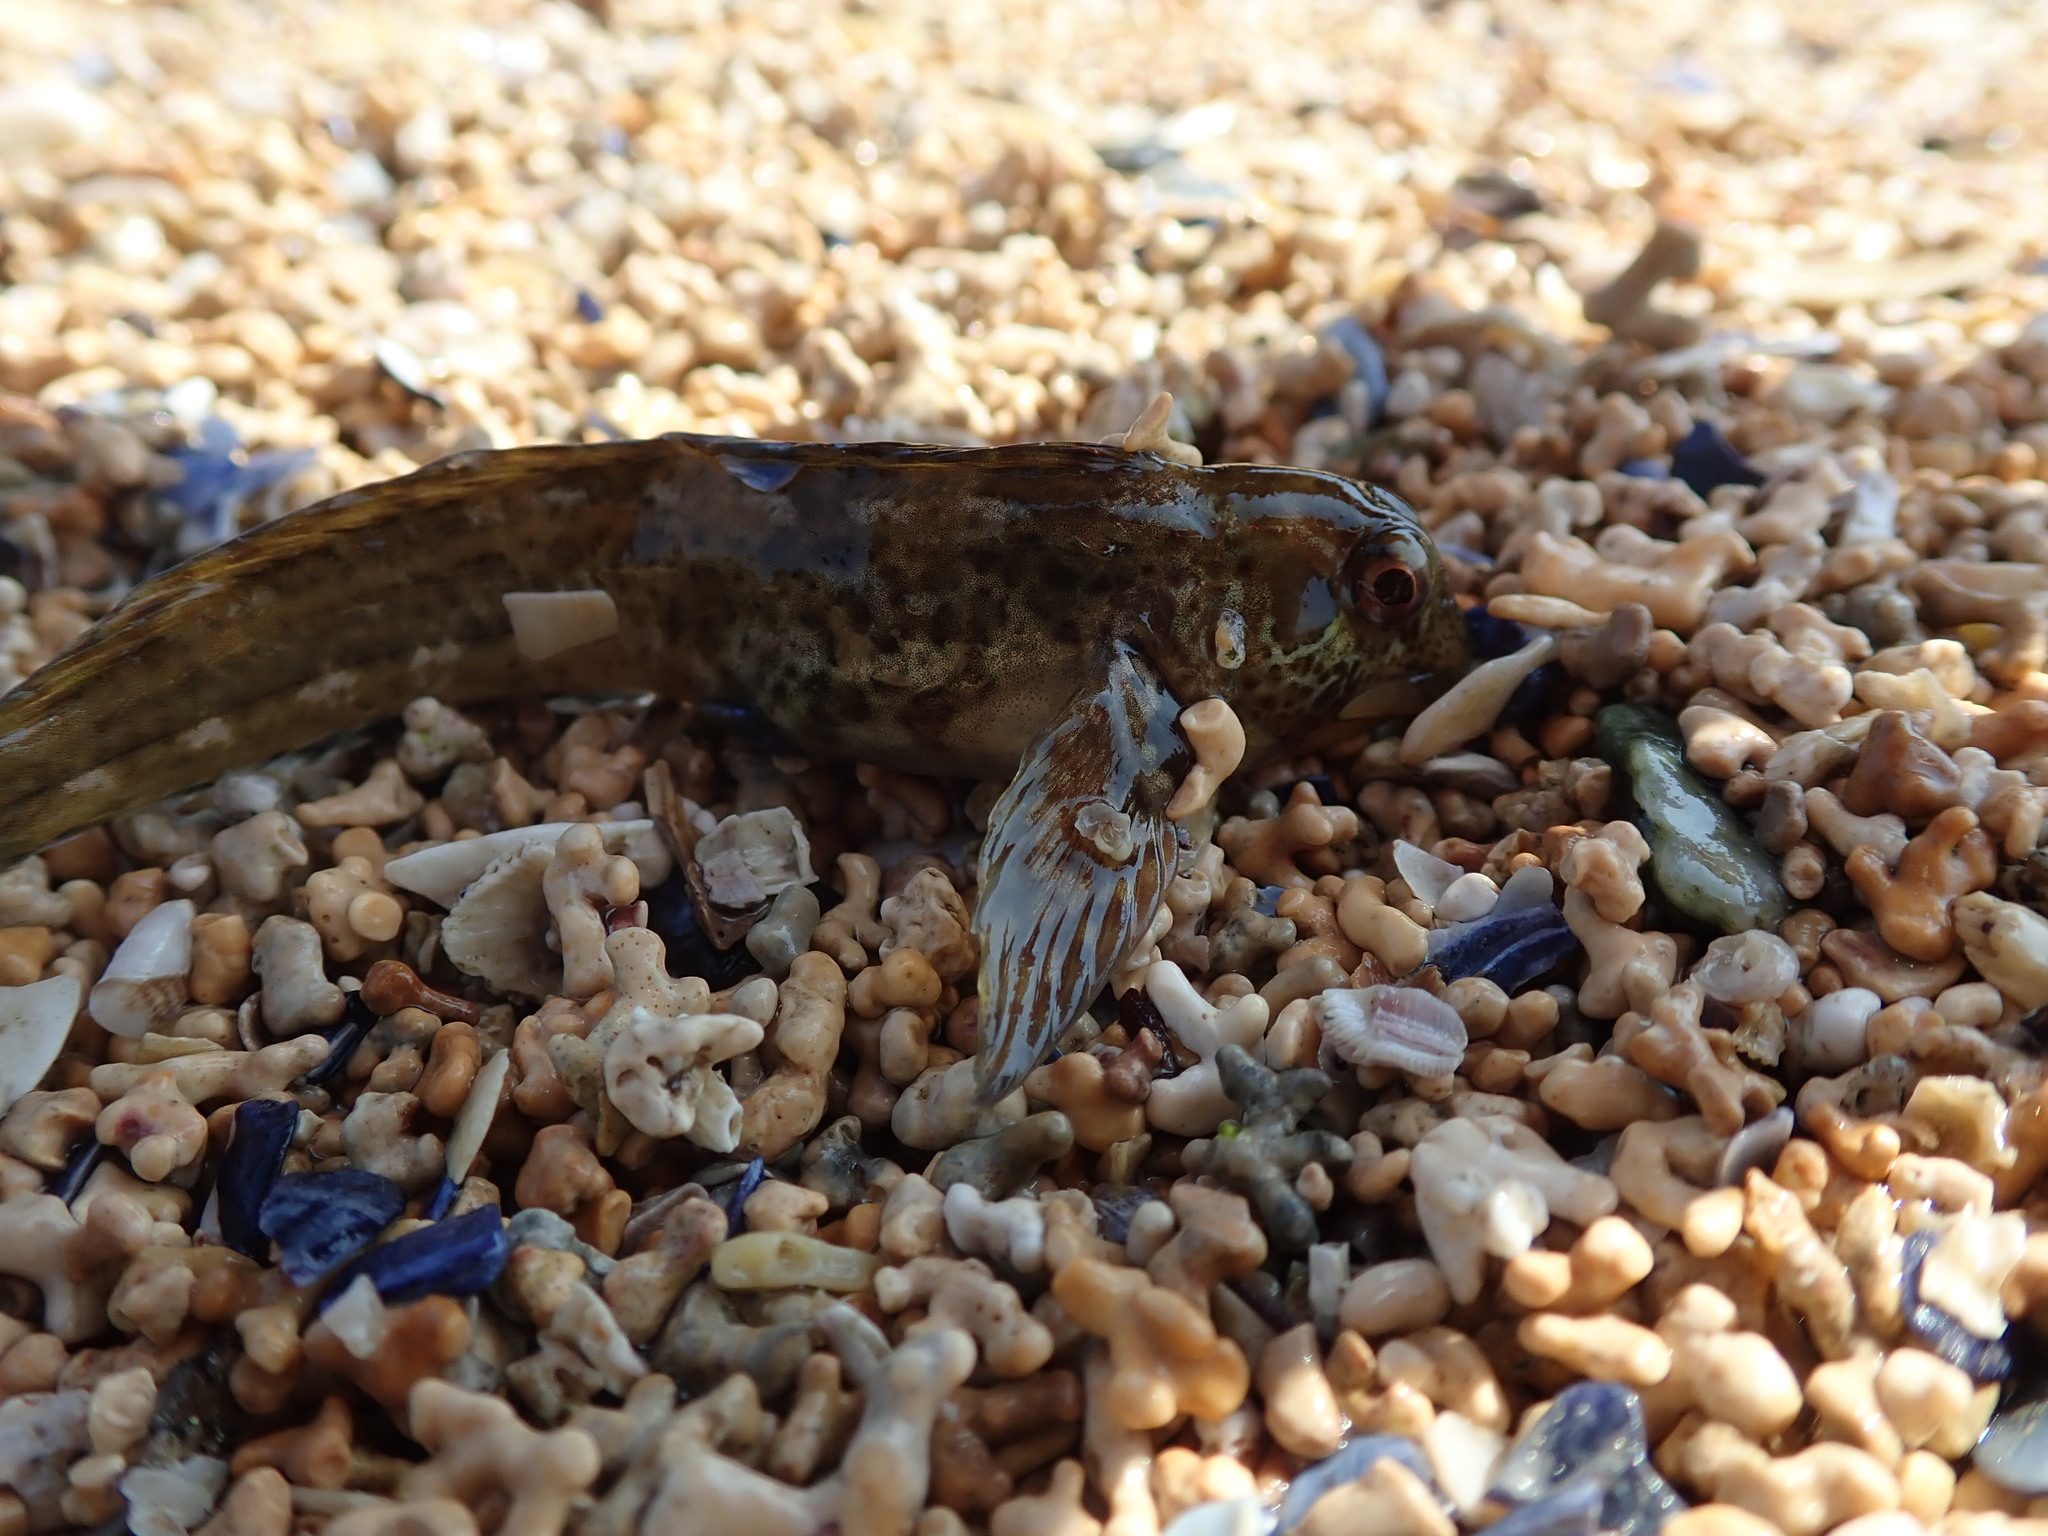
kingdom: Animalia
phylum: Chordata
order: Perciformes
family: Blenniidae
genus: Lipophrys
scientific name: Lipophrys pholis
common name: Shanny
